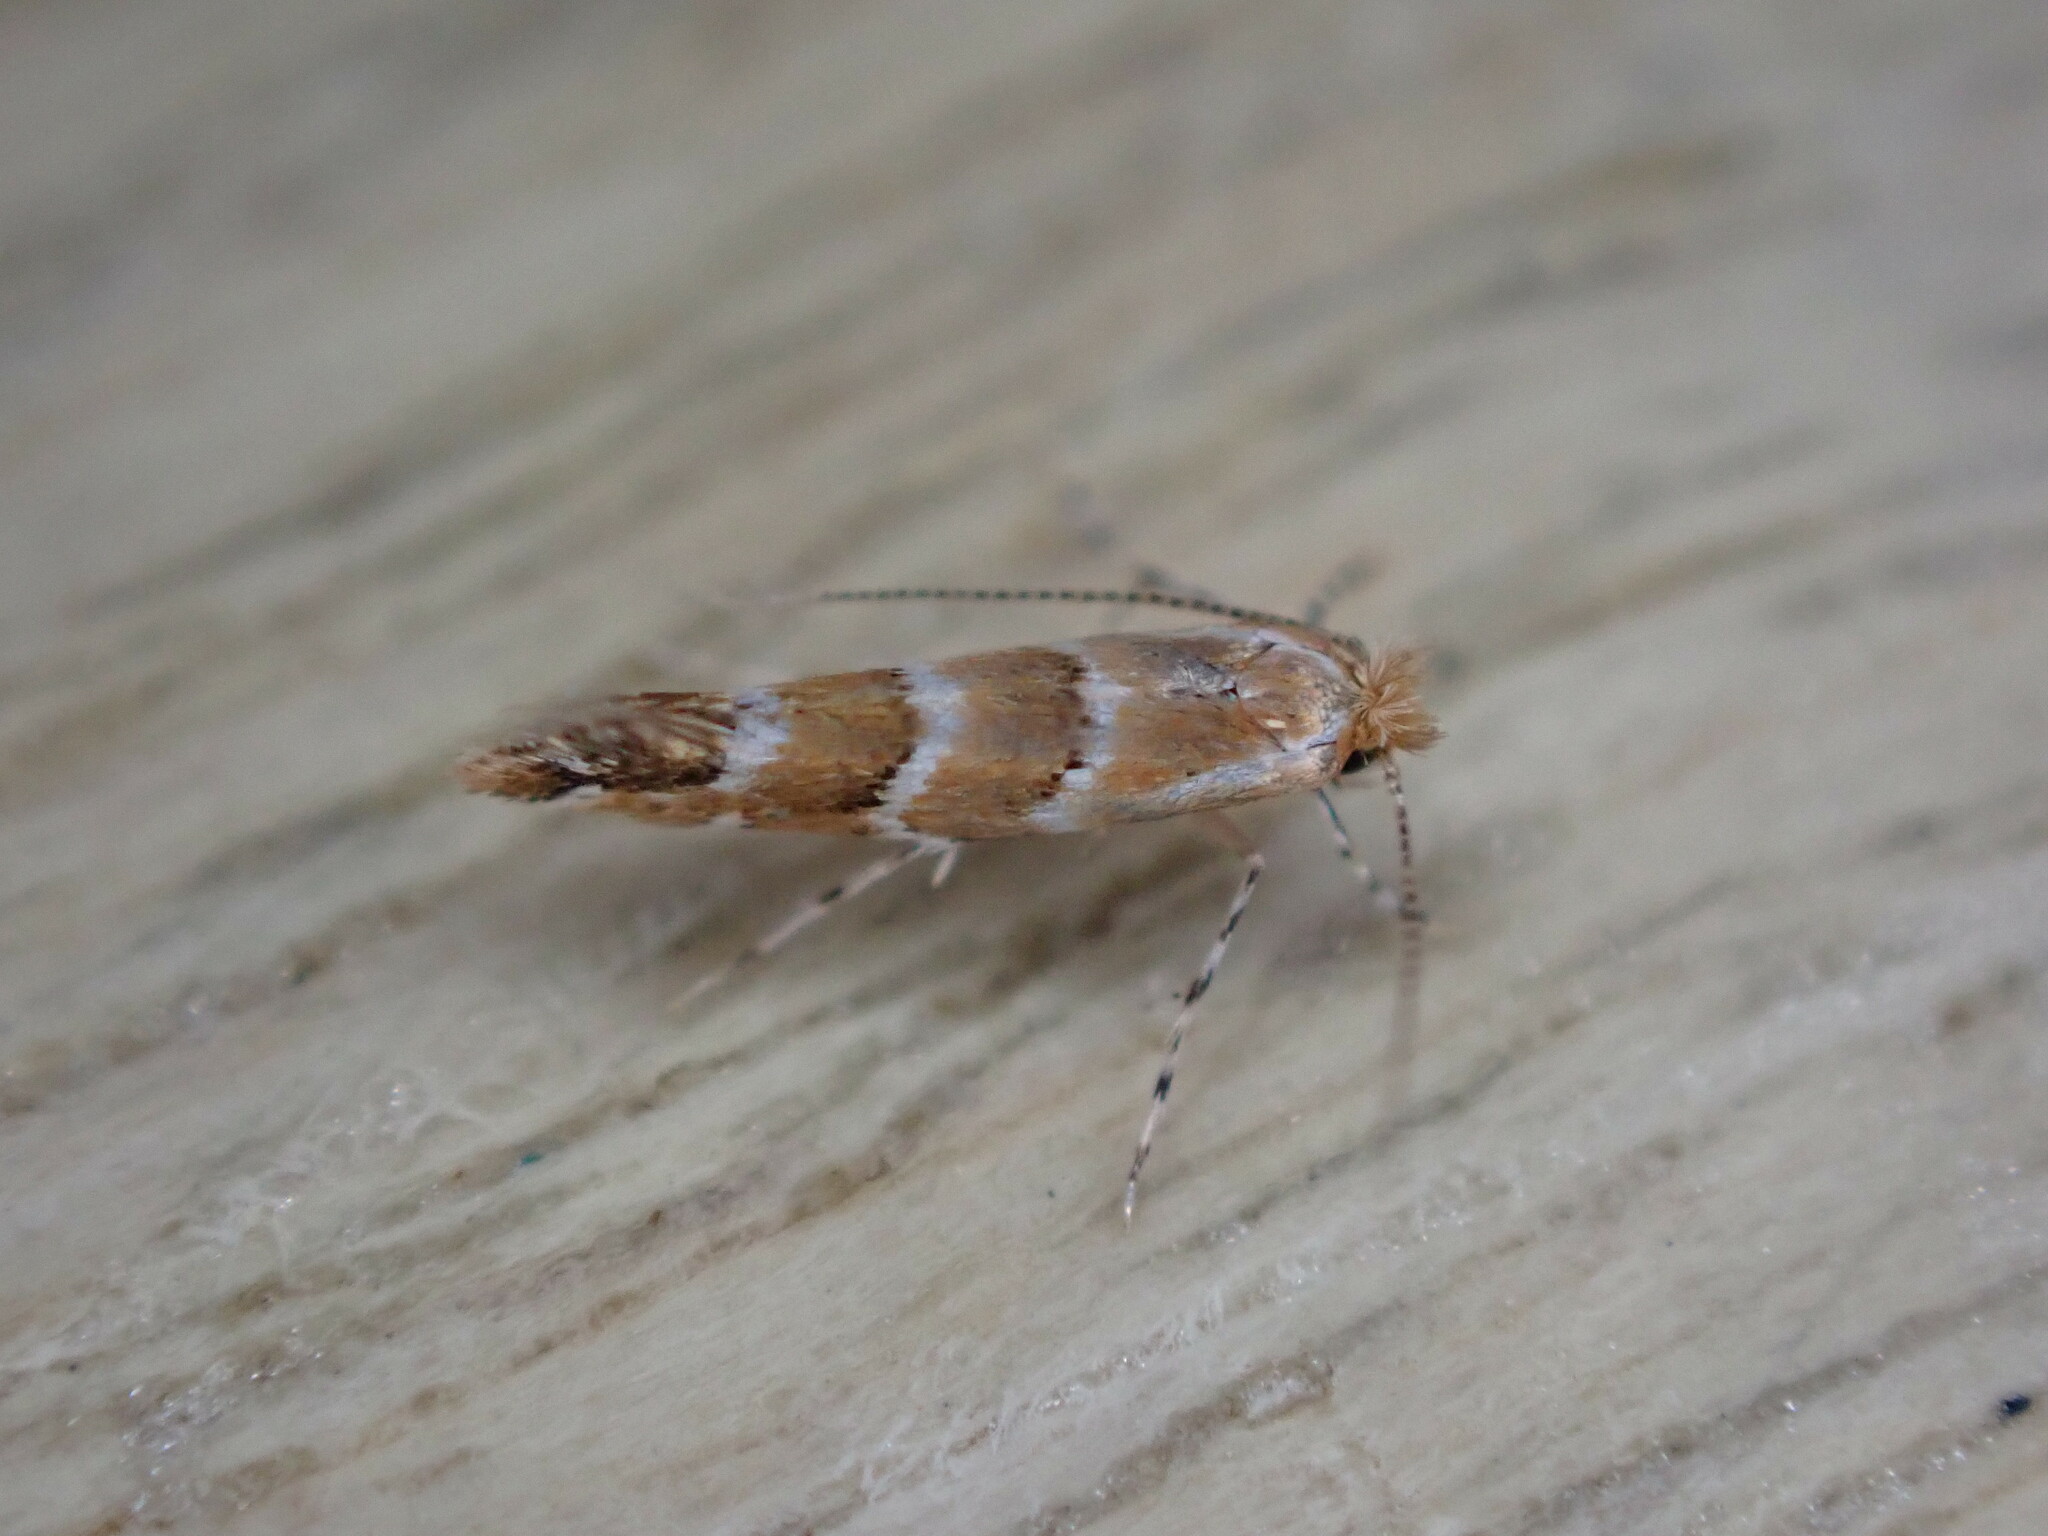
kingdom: Animalia
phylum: Arthropoda
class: Insecta
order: Lepidoptera
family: Gracillariidae
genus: Cameraria
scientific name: Cameraria ohridella
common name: Horse-chestnut leaf-miner
